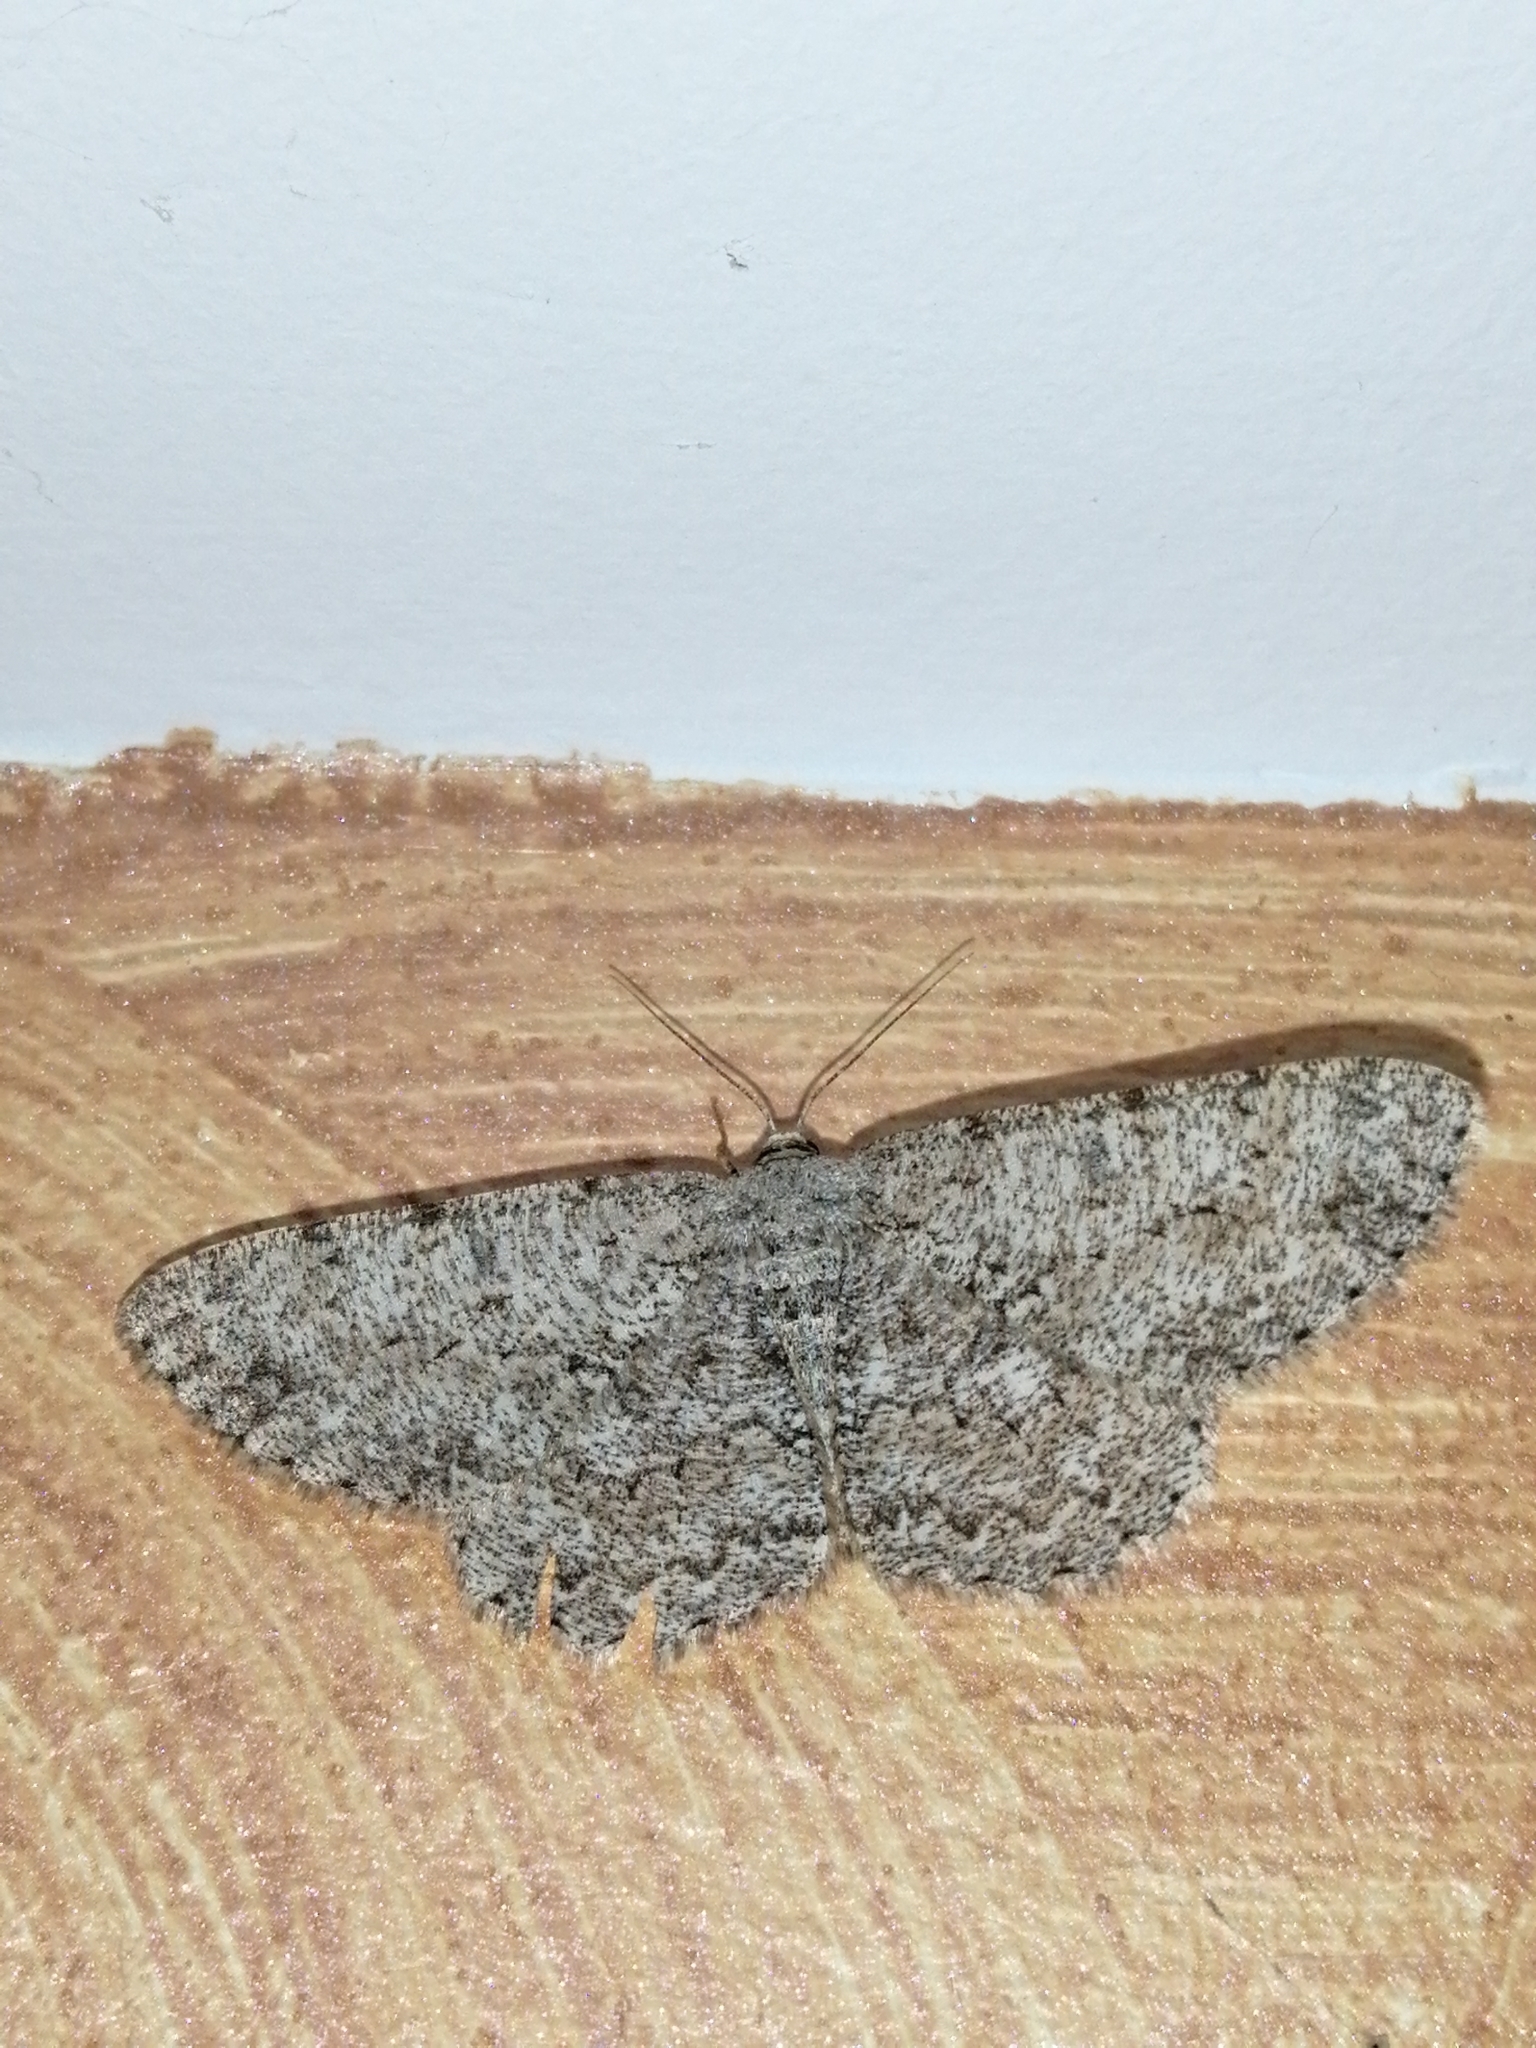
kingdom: Animalia
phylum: Arthropoda
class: Insecta
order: Lepidoptera
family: Geometridae
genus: Hypomecis
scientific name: Hypomecis punctinalis
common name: Pale oak beauty
